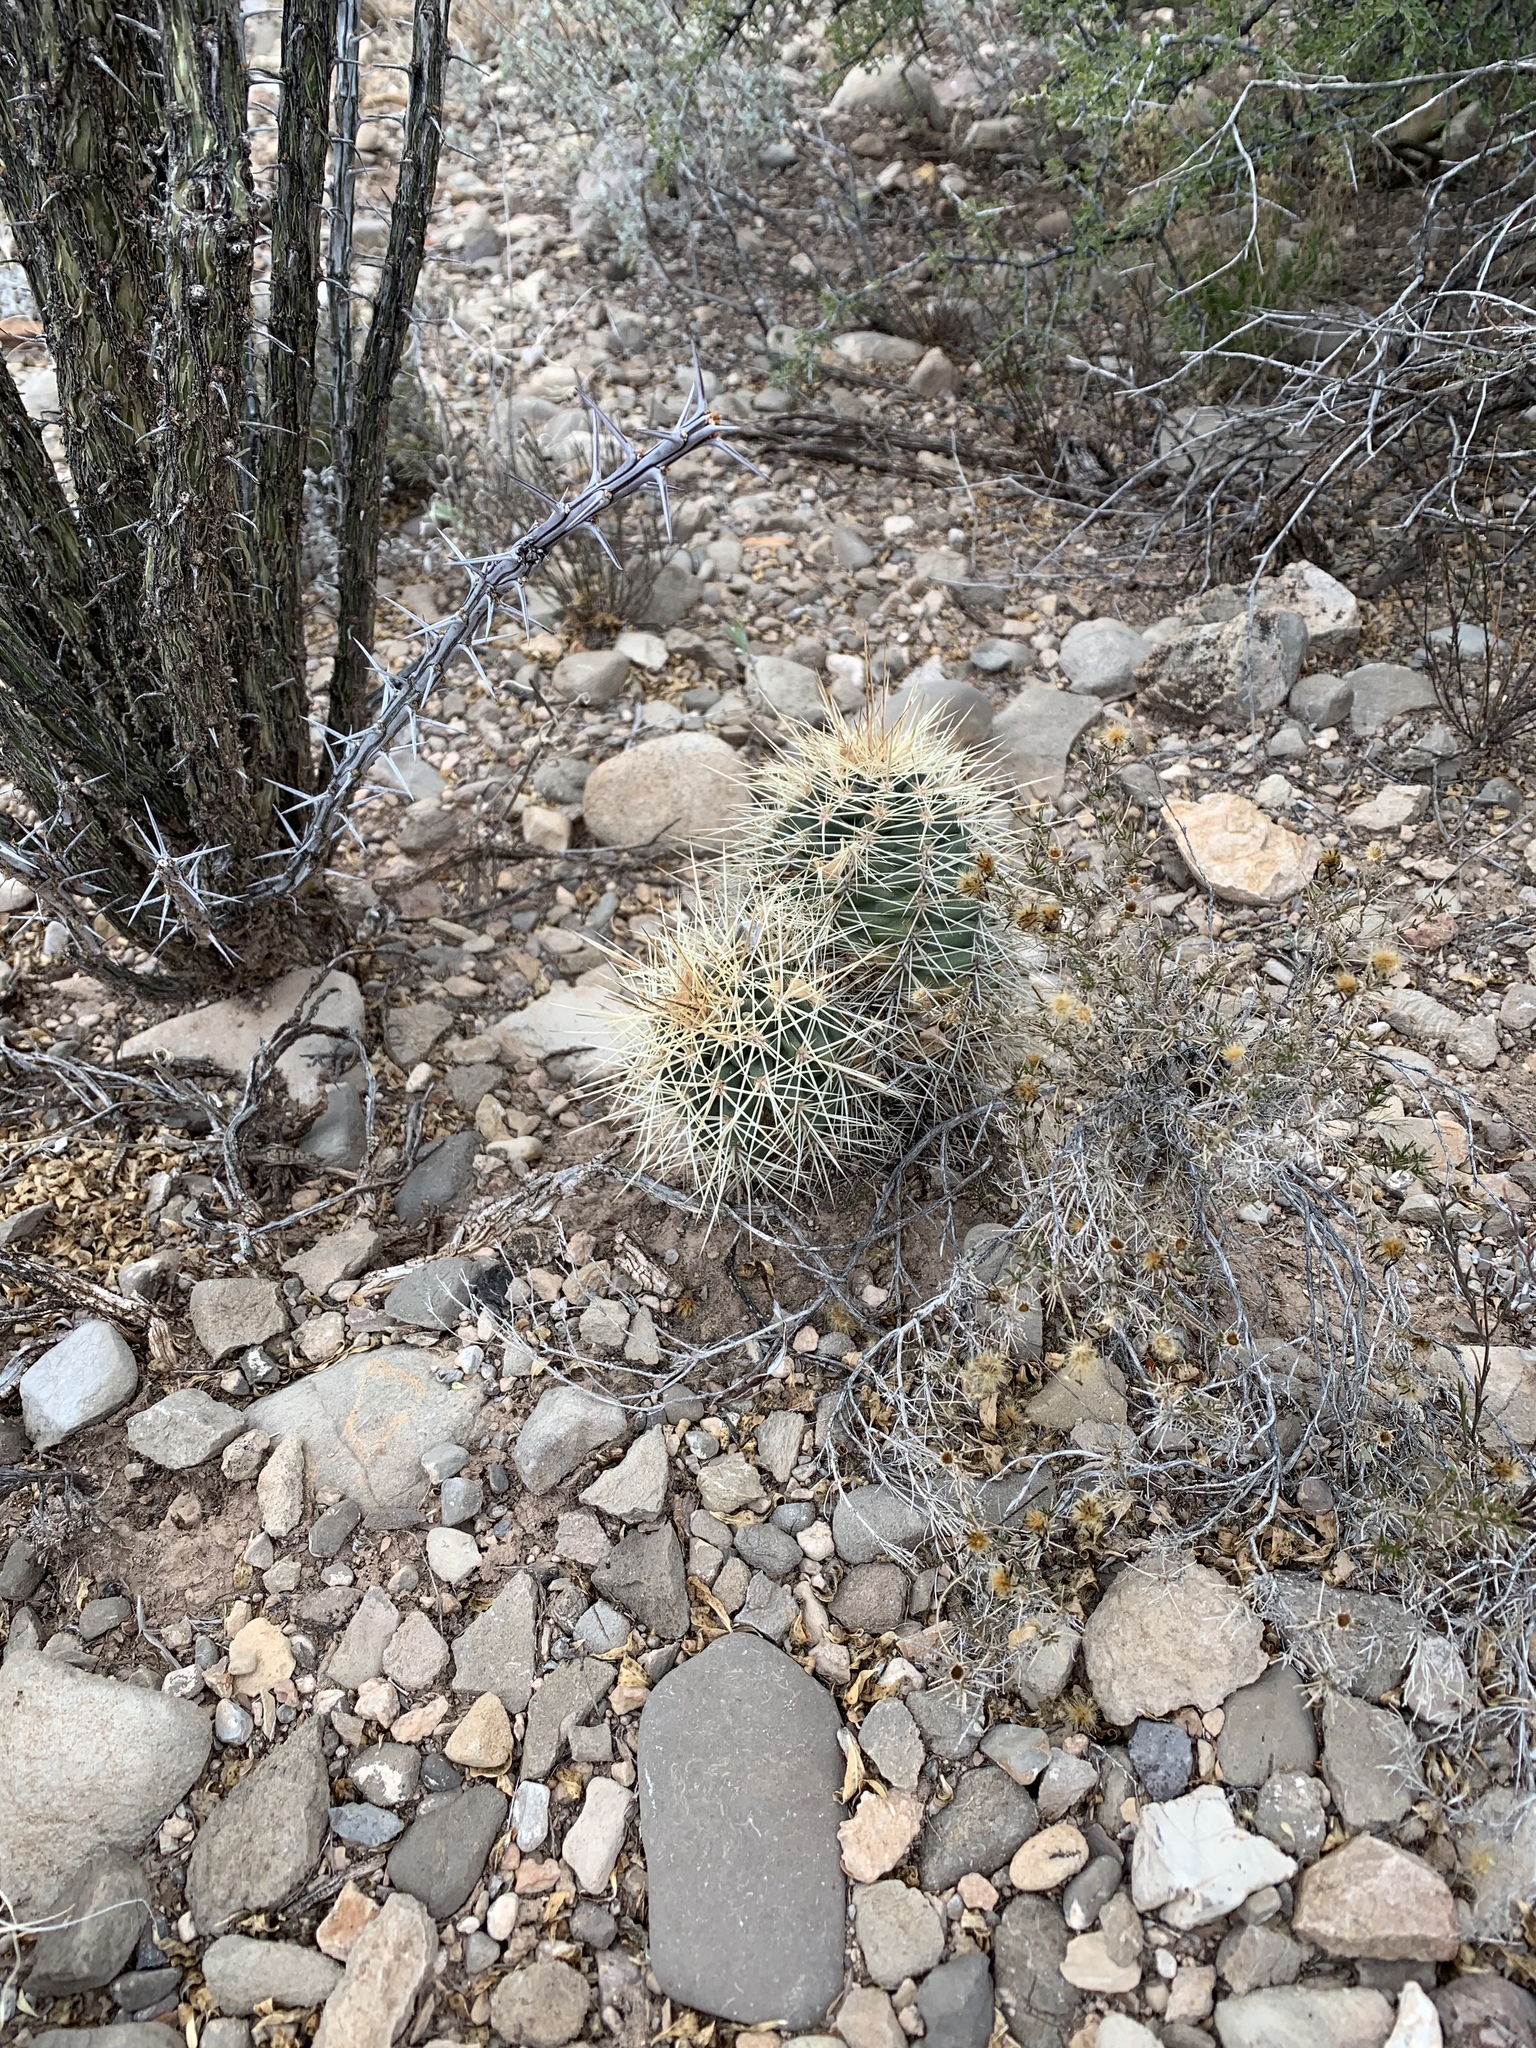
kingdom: Plantae
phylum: Tracheophyta
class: Magnoliopsida
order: Caryophyllales
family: Cactaceae
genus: Echinocereus
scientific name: Echinocereus coccineus
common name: Scarlet hedgehog cactus
